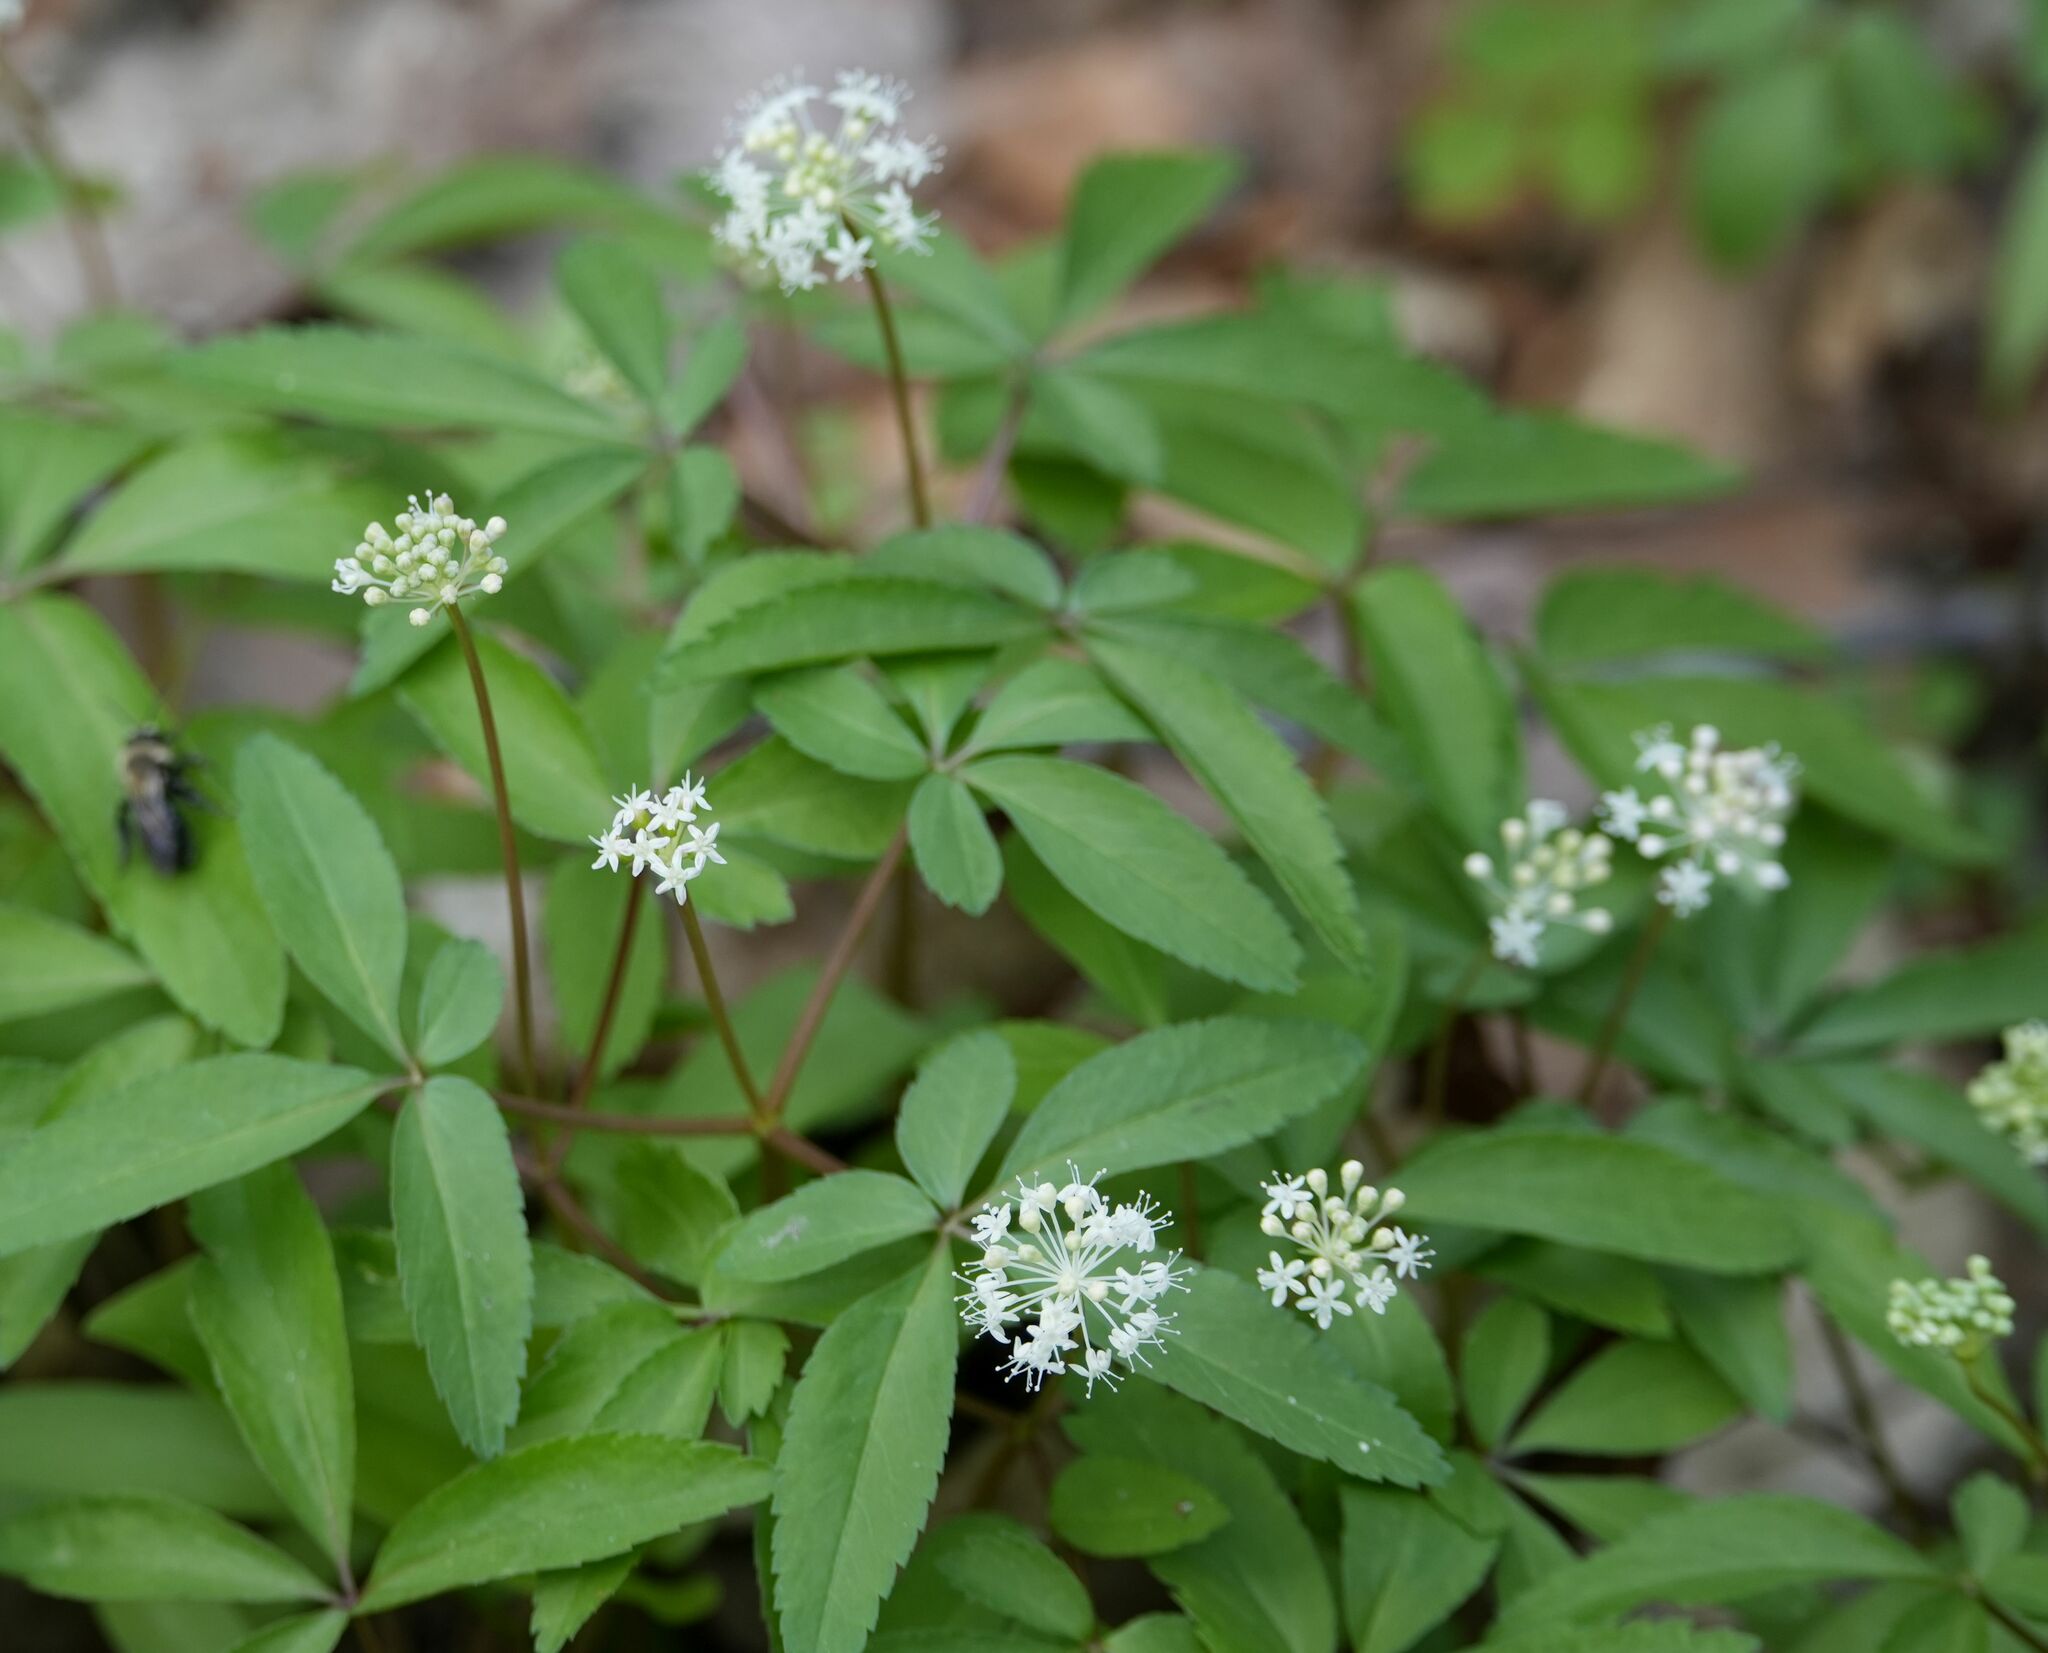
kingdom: Plantae
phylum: Tracheophyta
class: Magnoliopsida
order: Apiales
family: Araliaceae
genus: Panax
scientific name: Panax trifolius
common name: Dwarf ginseng
